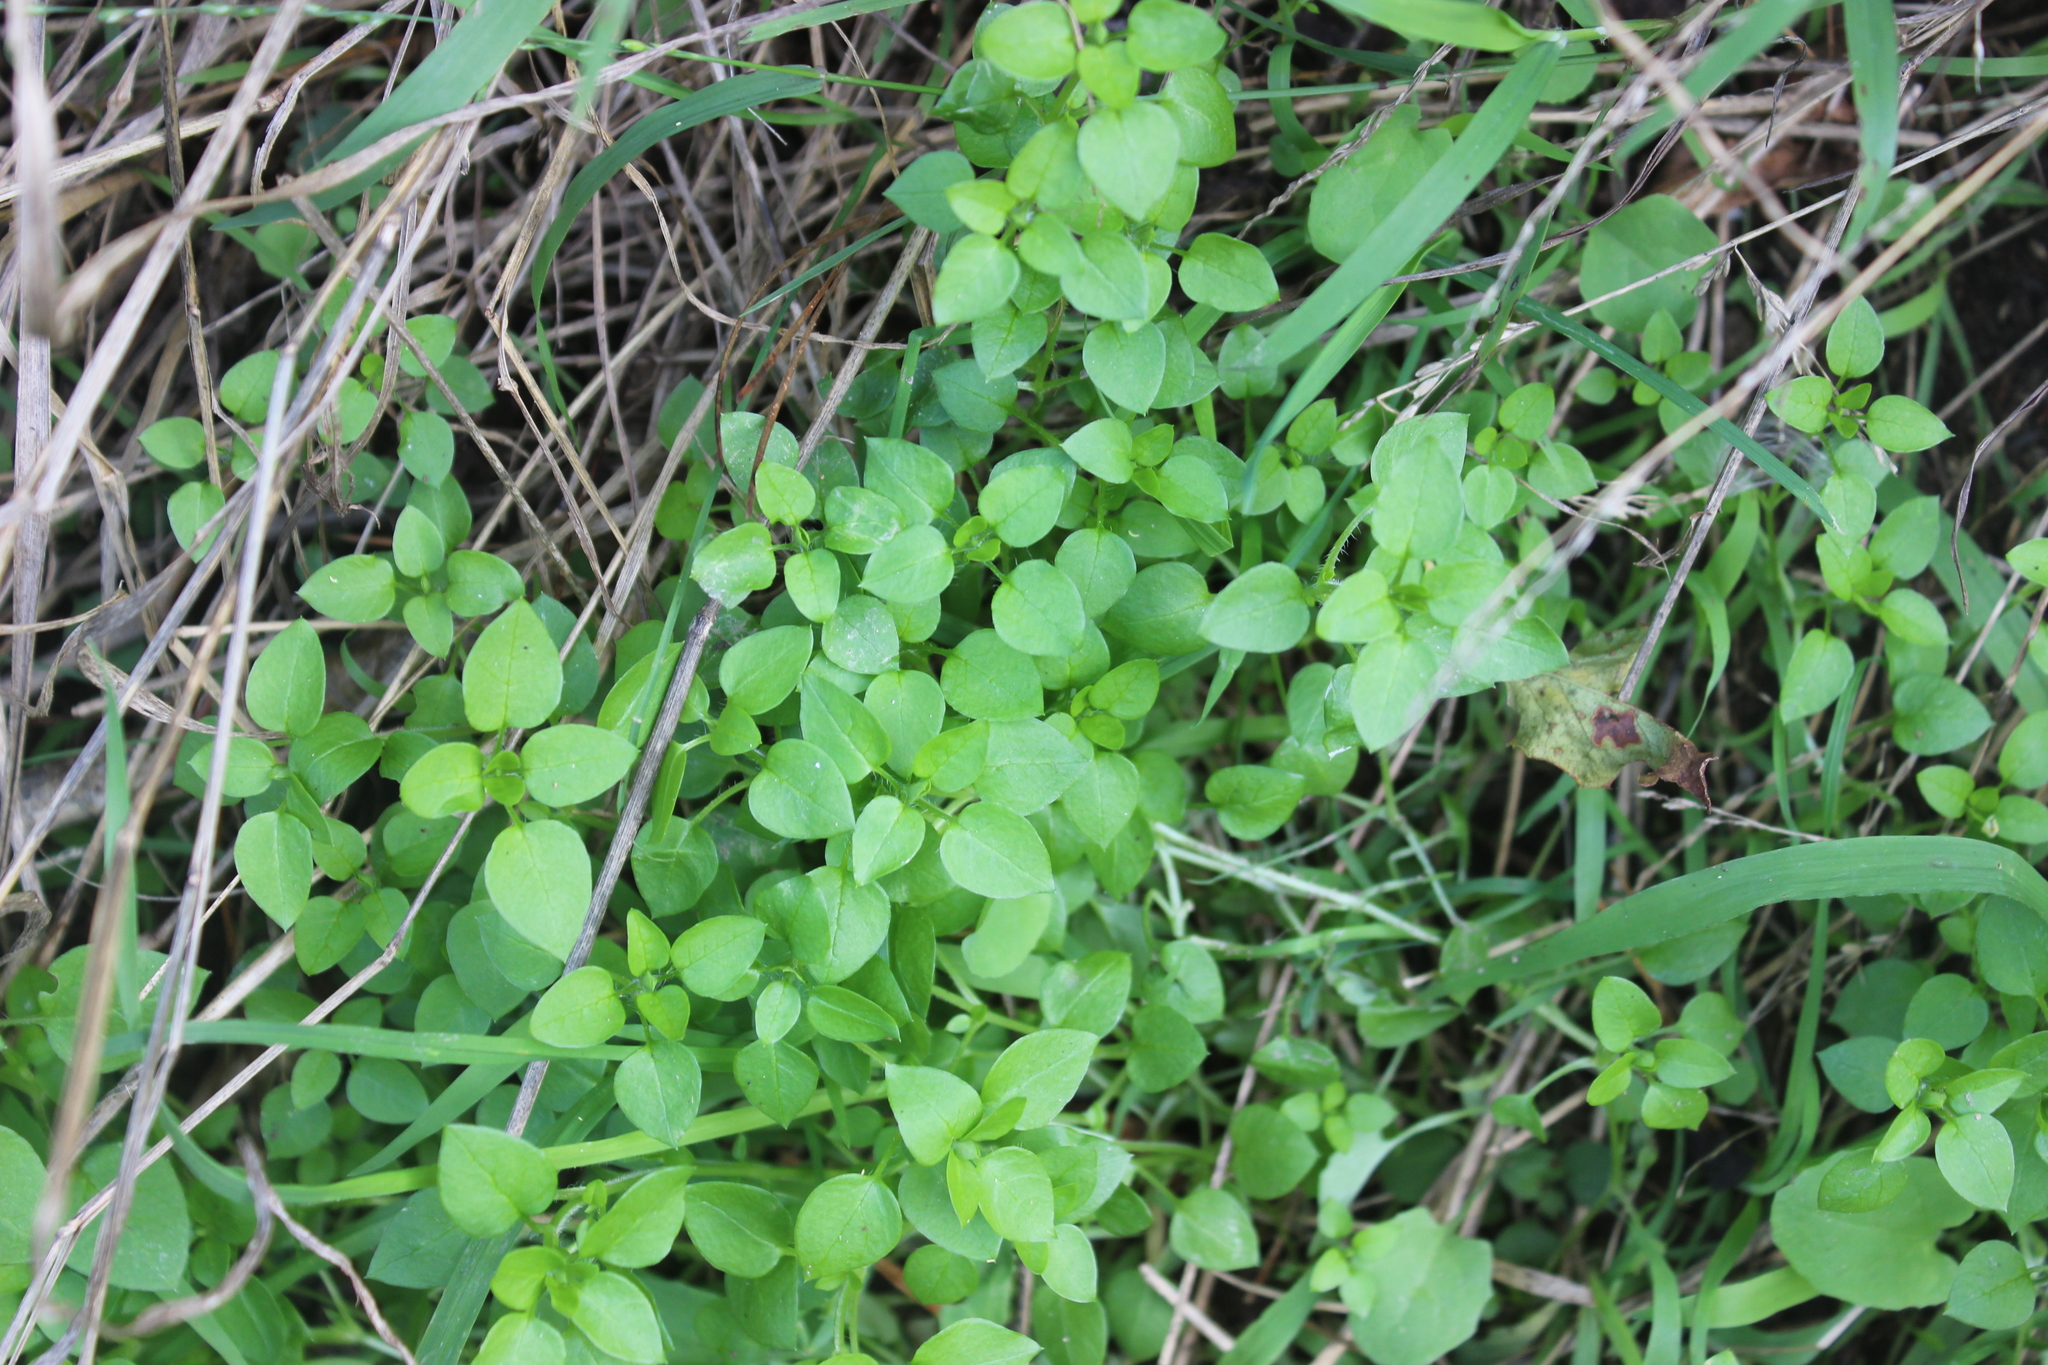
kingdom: Plantae
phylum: Tracheophyta
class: Magnoliopsida
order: Caryophyllales
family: Caryophyllaceae
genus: Stellaria
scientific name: Stellaria media
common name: Common chickweed
